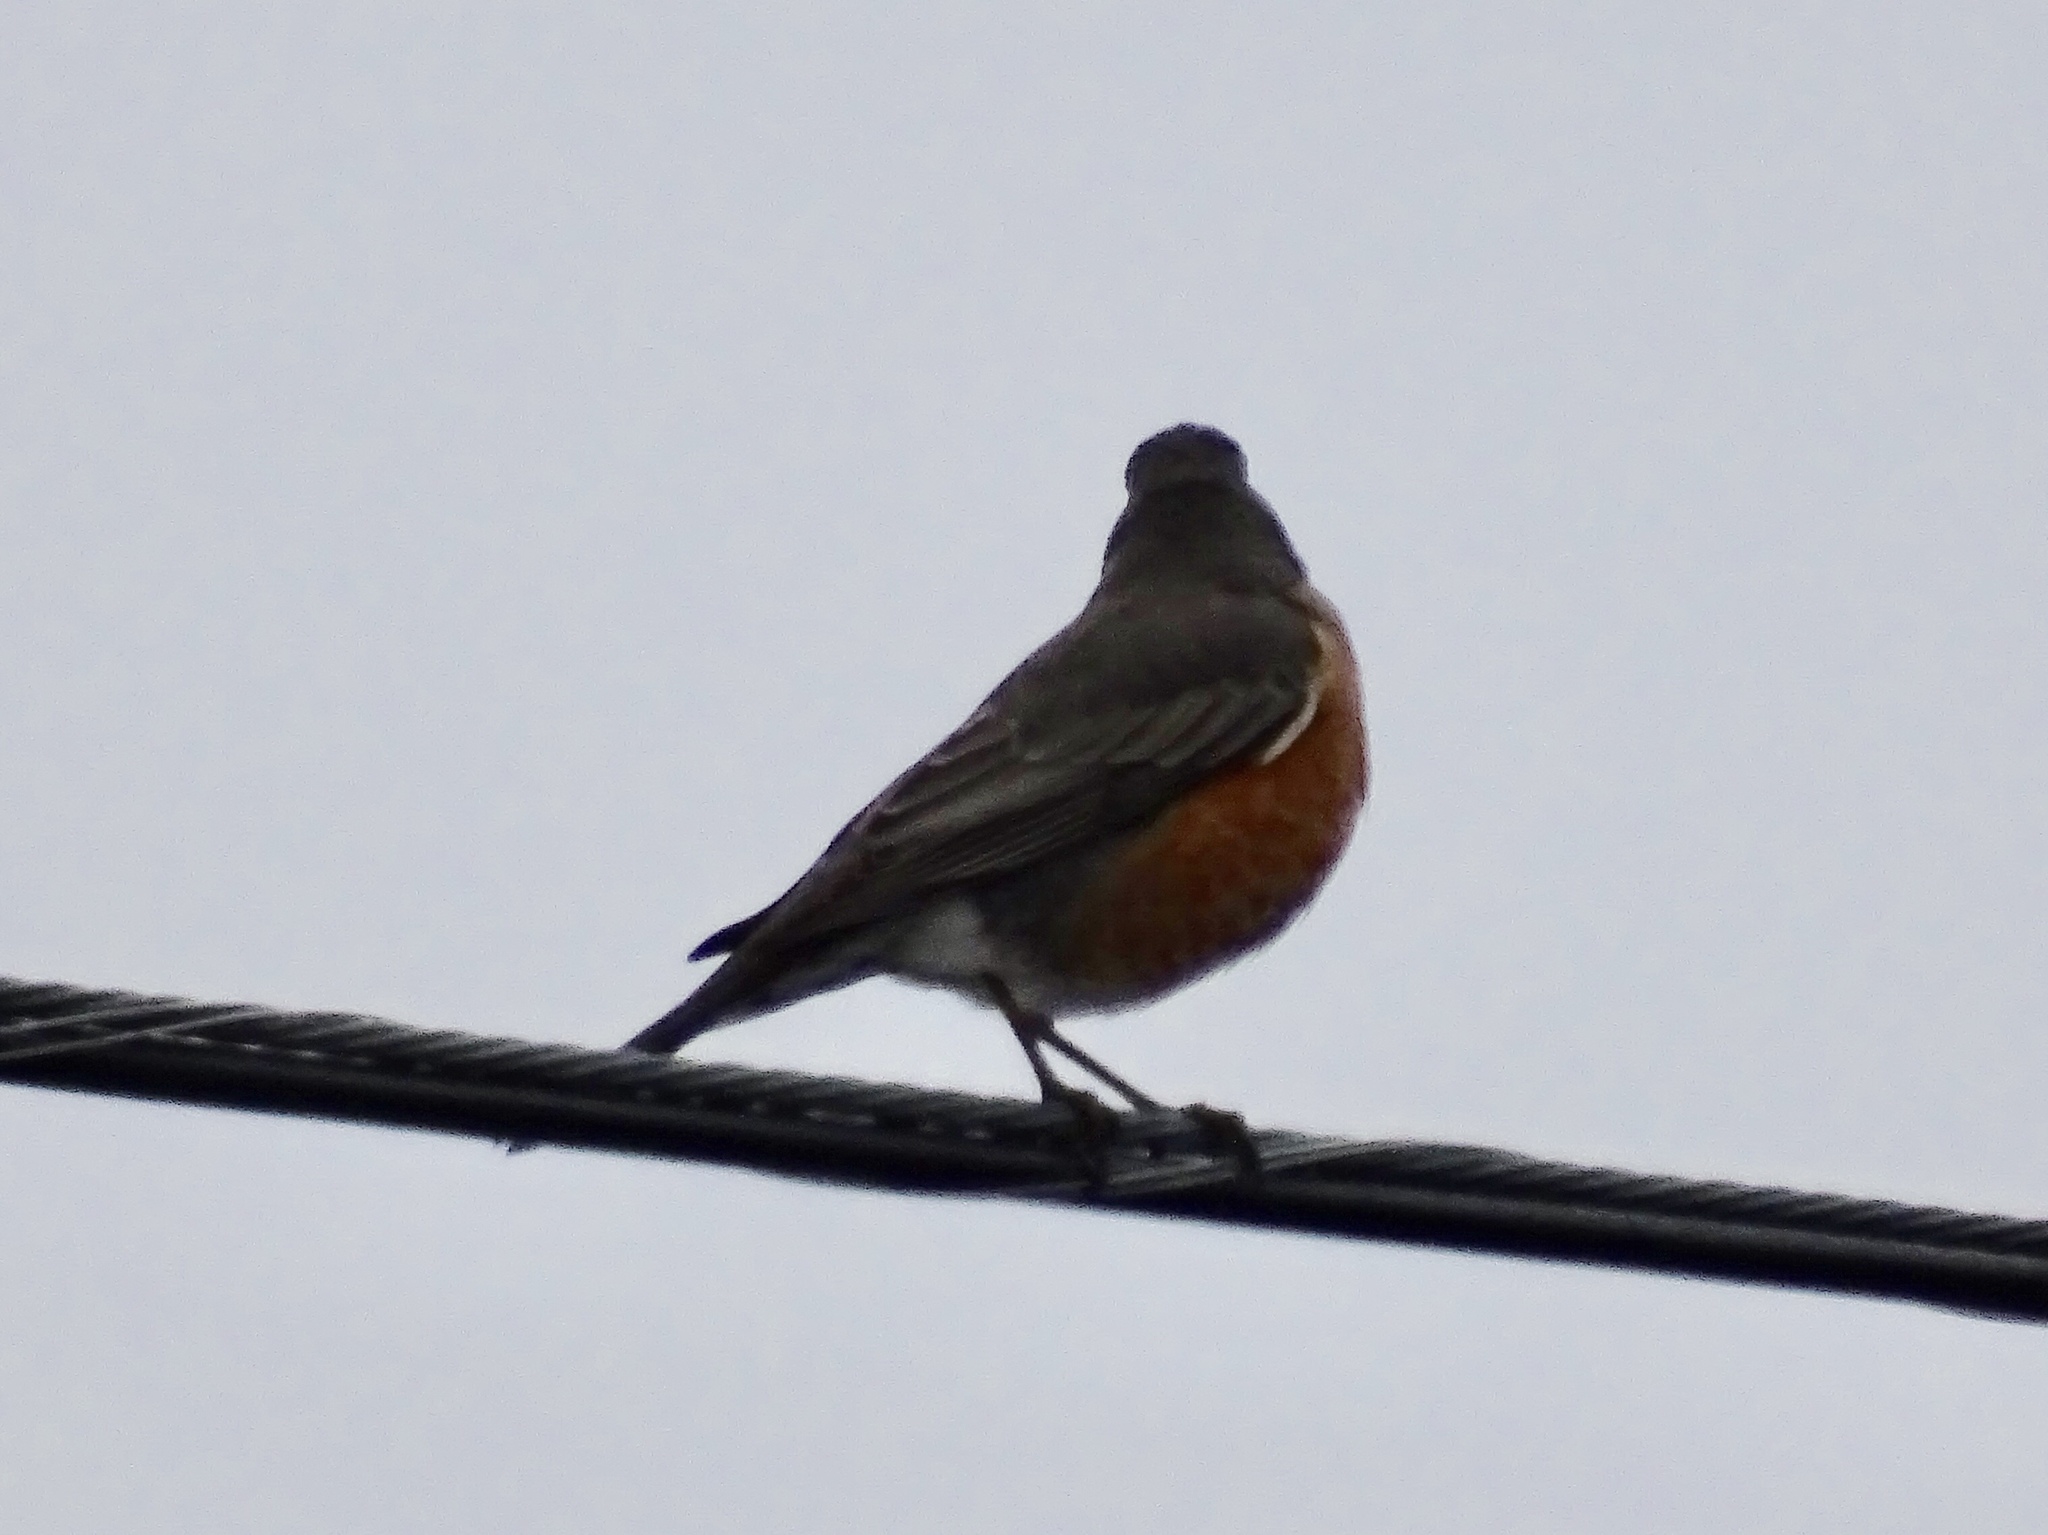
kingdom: Animalia
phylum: Chordata
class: Aves
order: Passeriformes
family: Turdidae
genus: Turdus
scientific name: Turdus migratorius
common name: American robin
